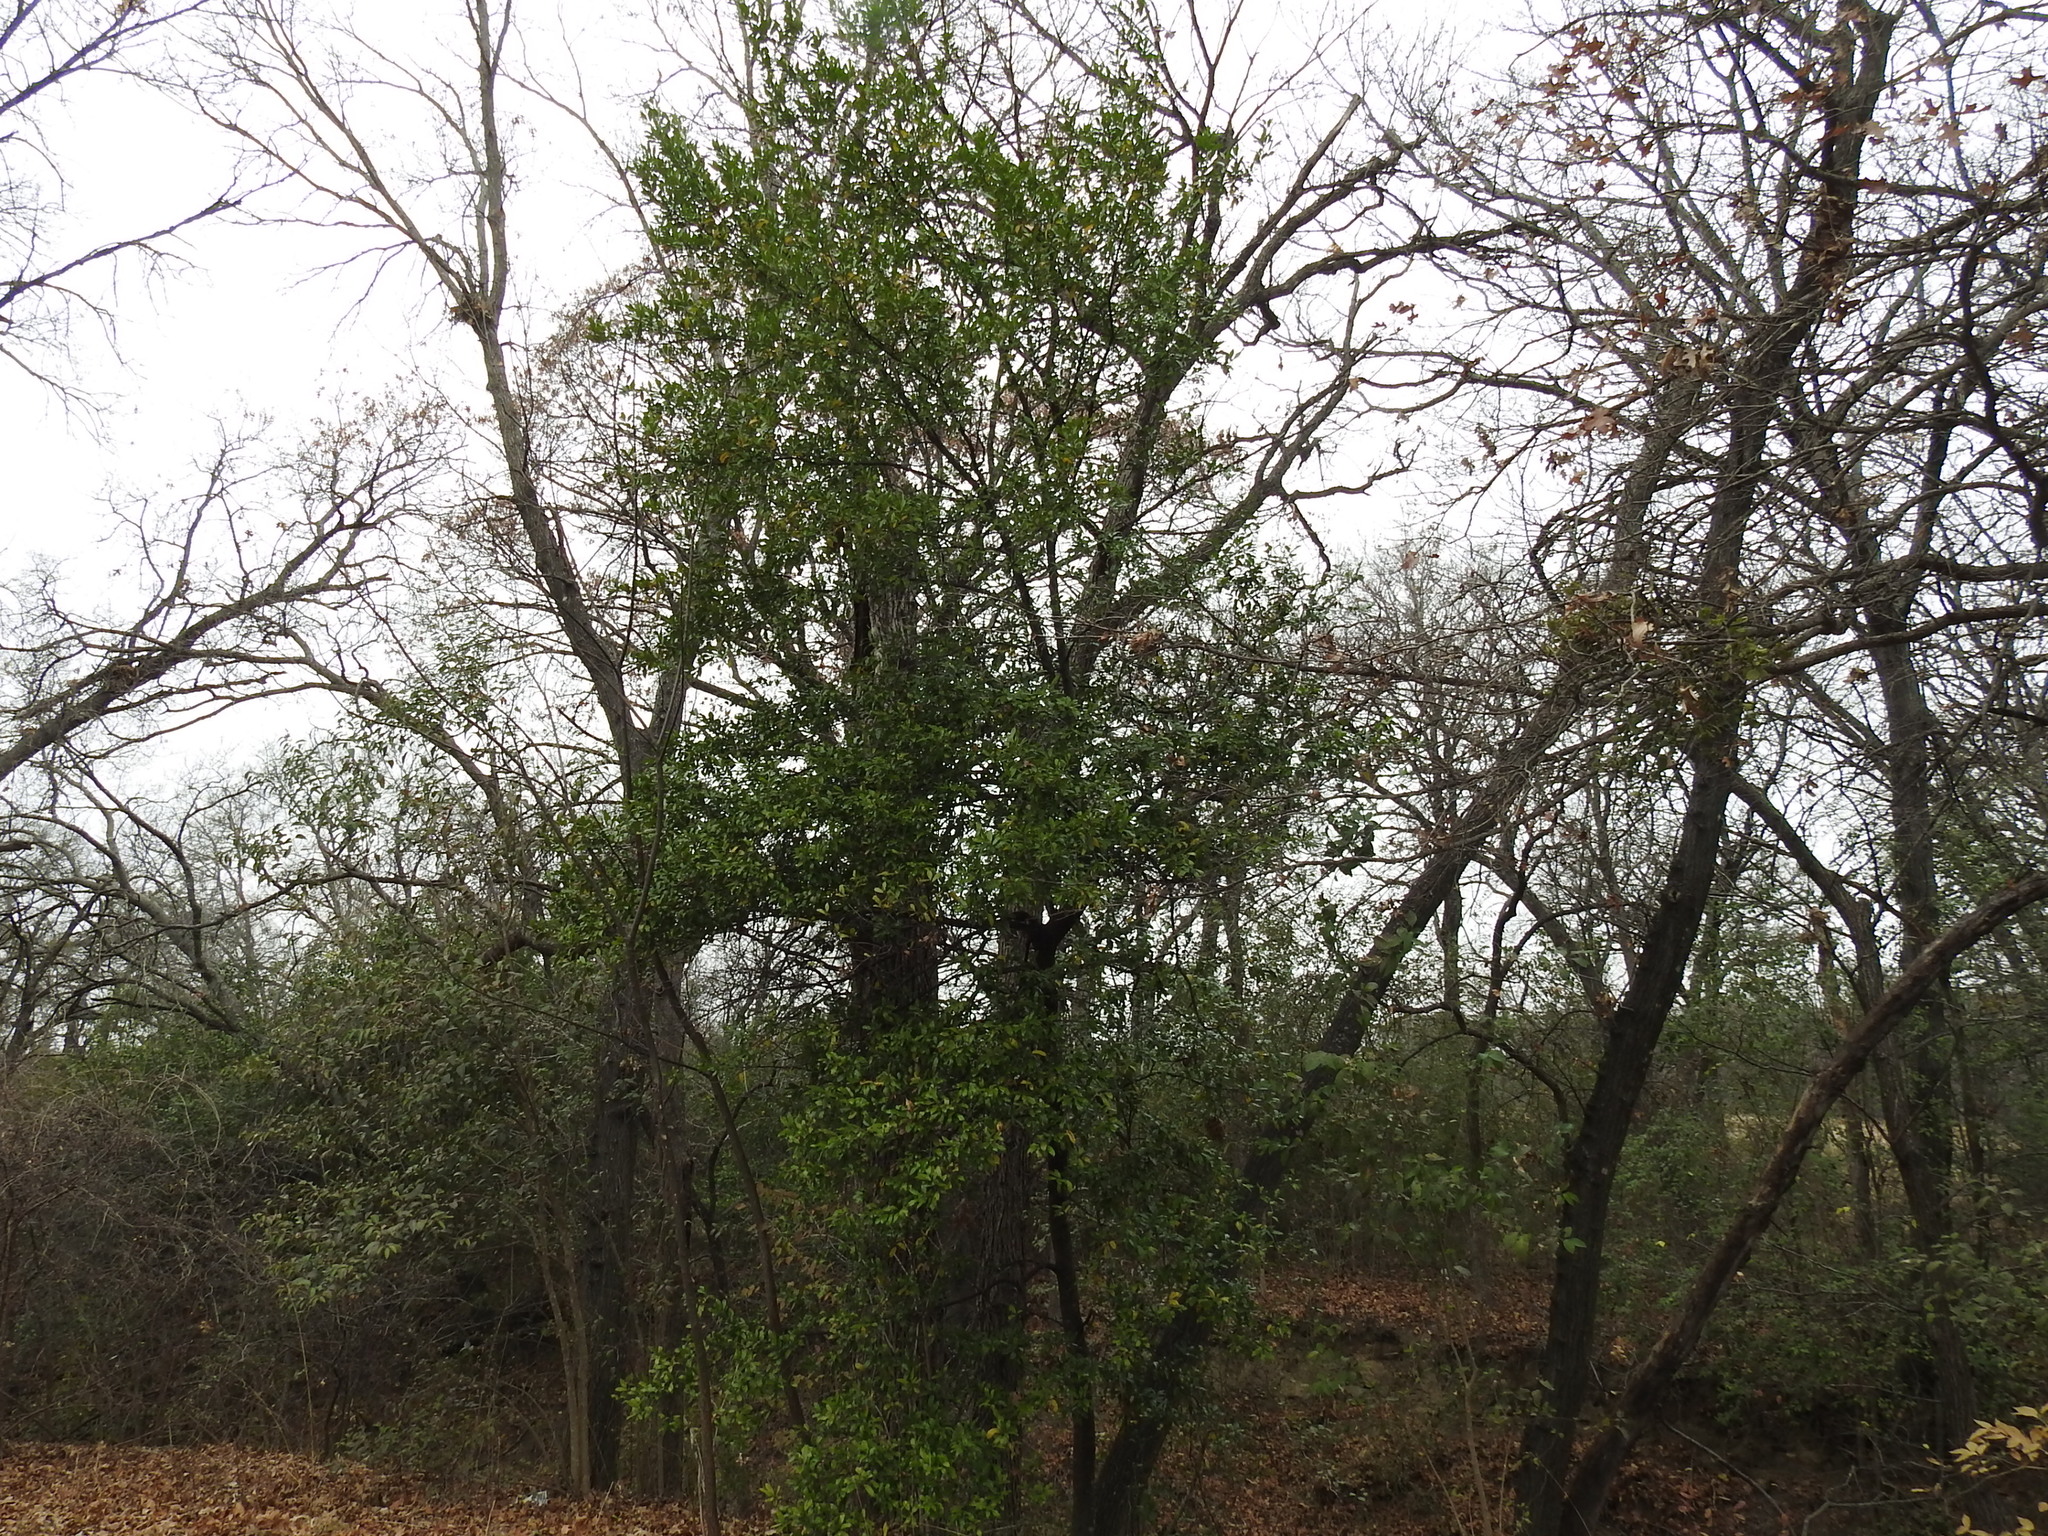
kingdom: Plantae
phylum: Tracheophyta
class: Magnoliopsida
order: Rosales
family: Rosaceae
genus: Prunus
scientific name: Prunus caroliniana
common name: Carolina laurel cherry
